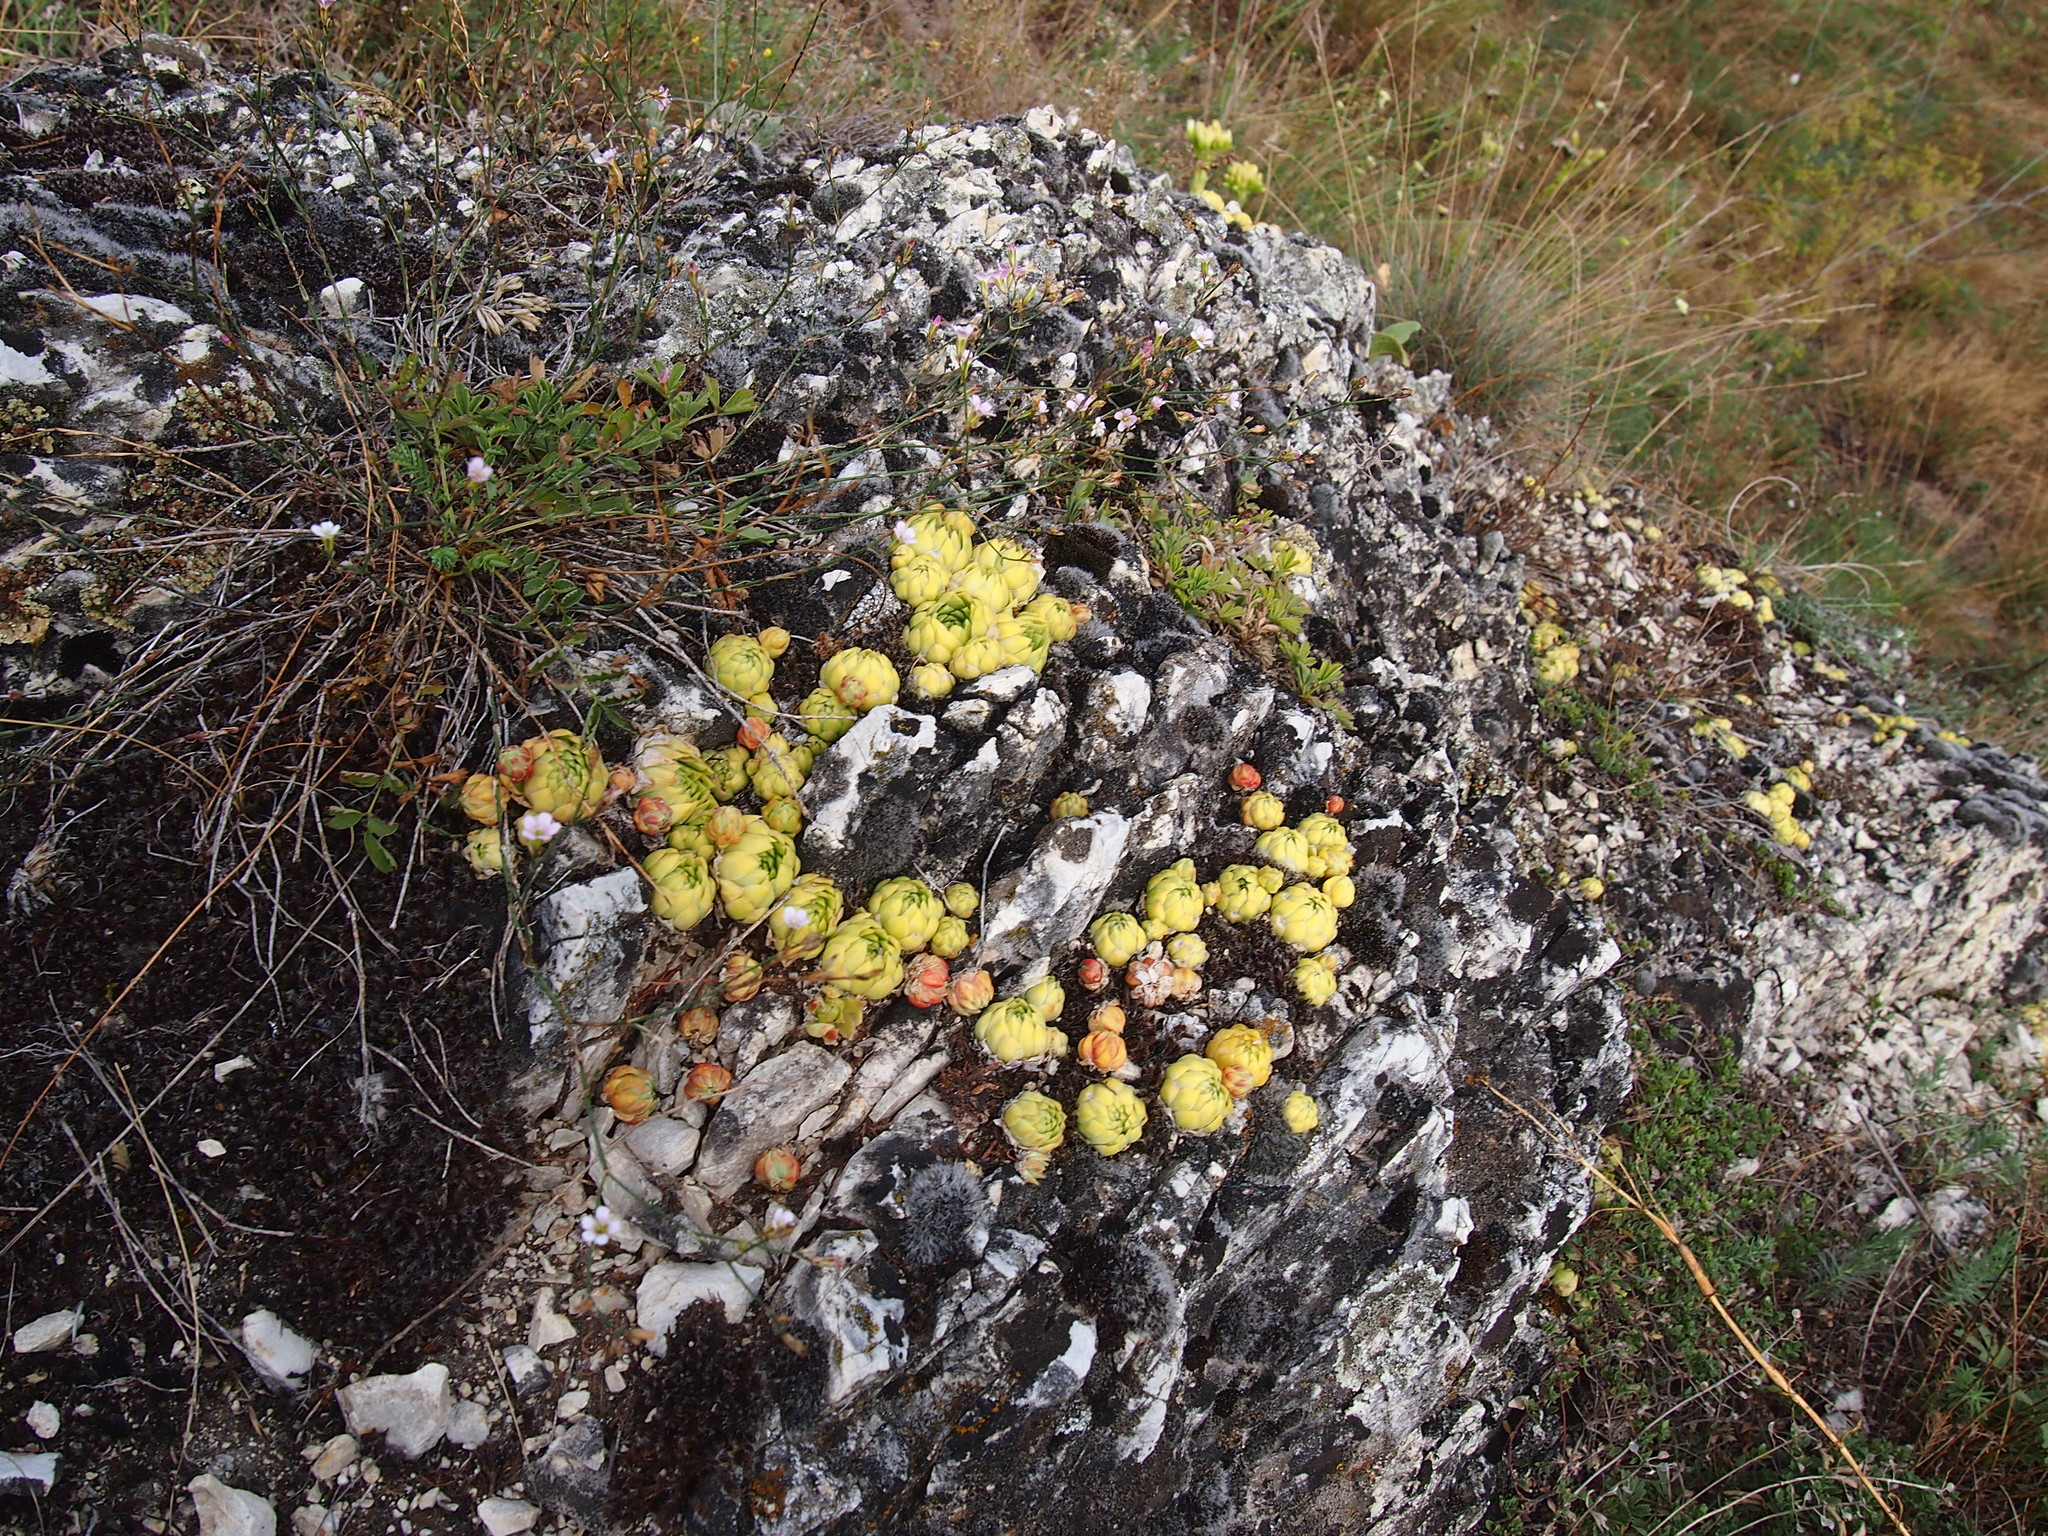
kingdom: Plantae
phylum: Tracheophyta
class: Magnoliopsida
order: Saxifragales
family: Crassulaceae
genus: Sempervivum
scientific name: Sempervivum globiferum
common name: Rolling hen-and-chicks
